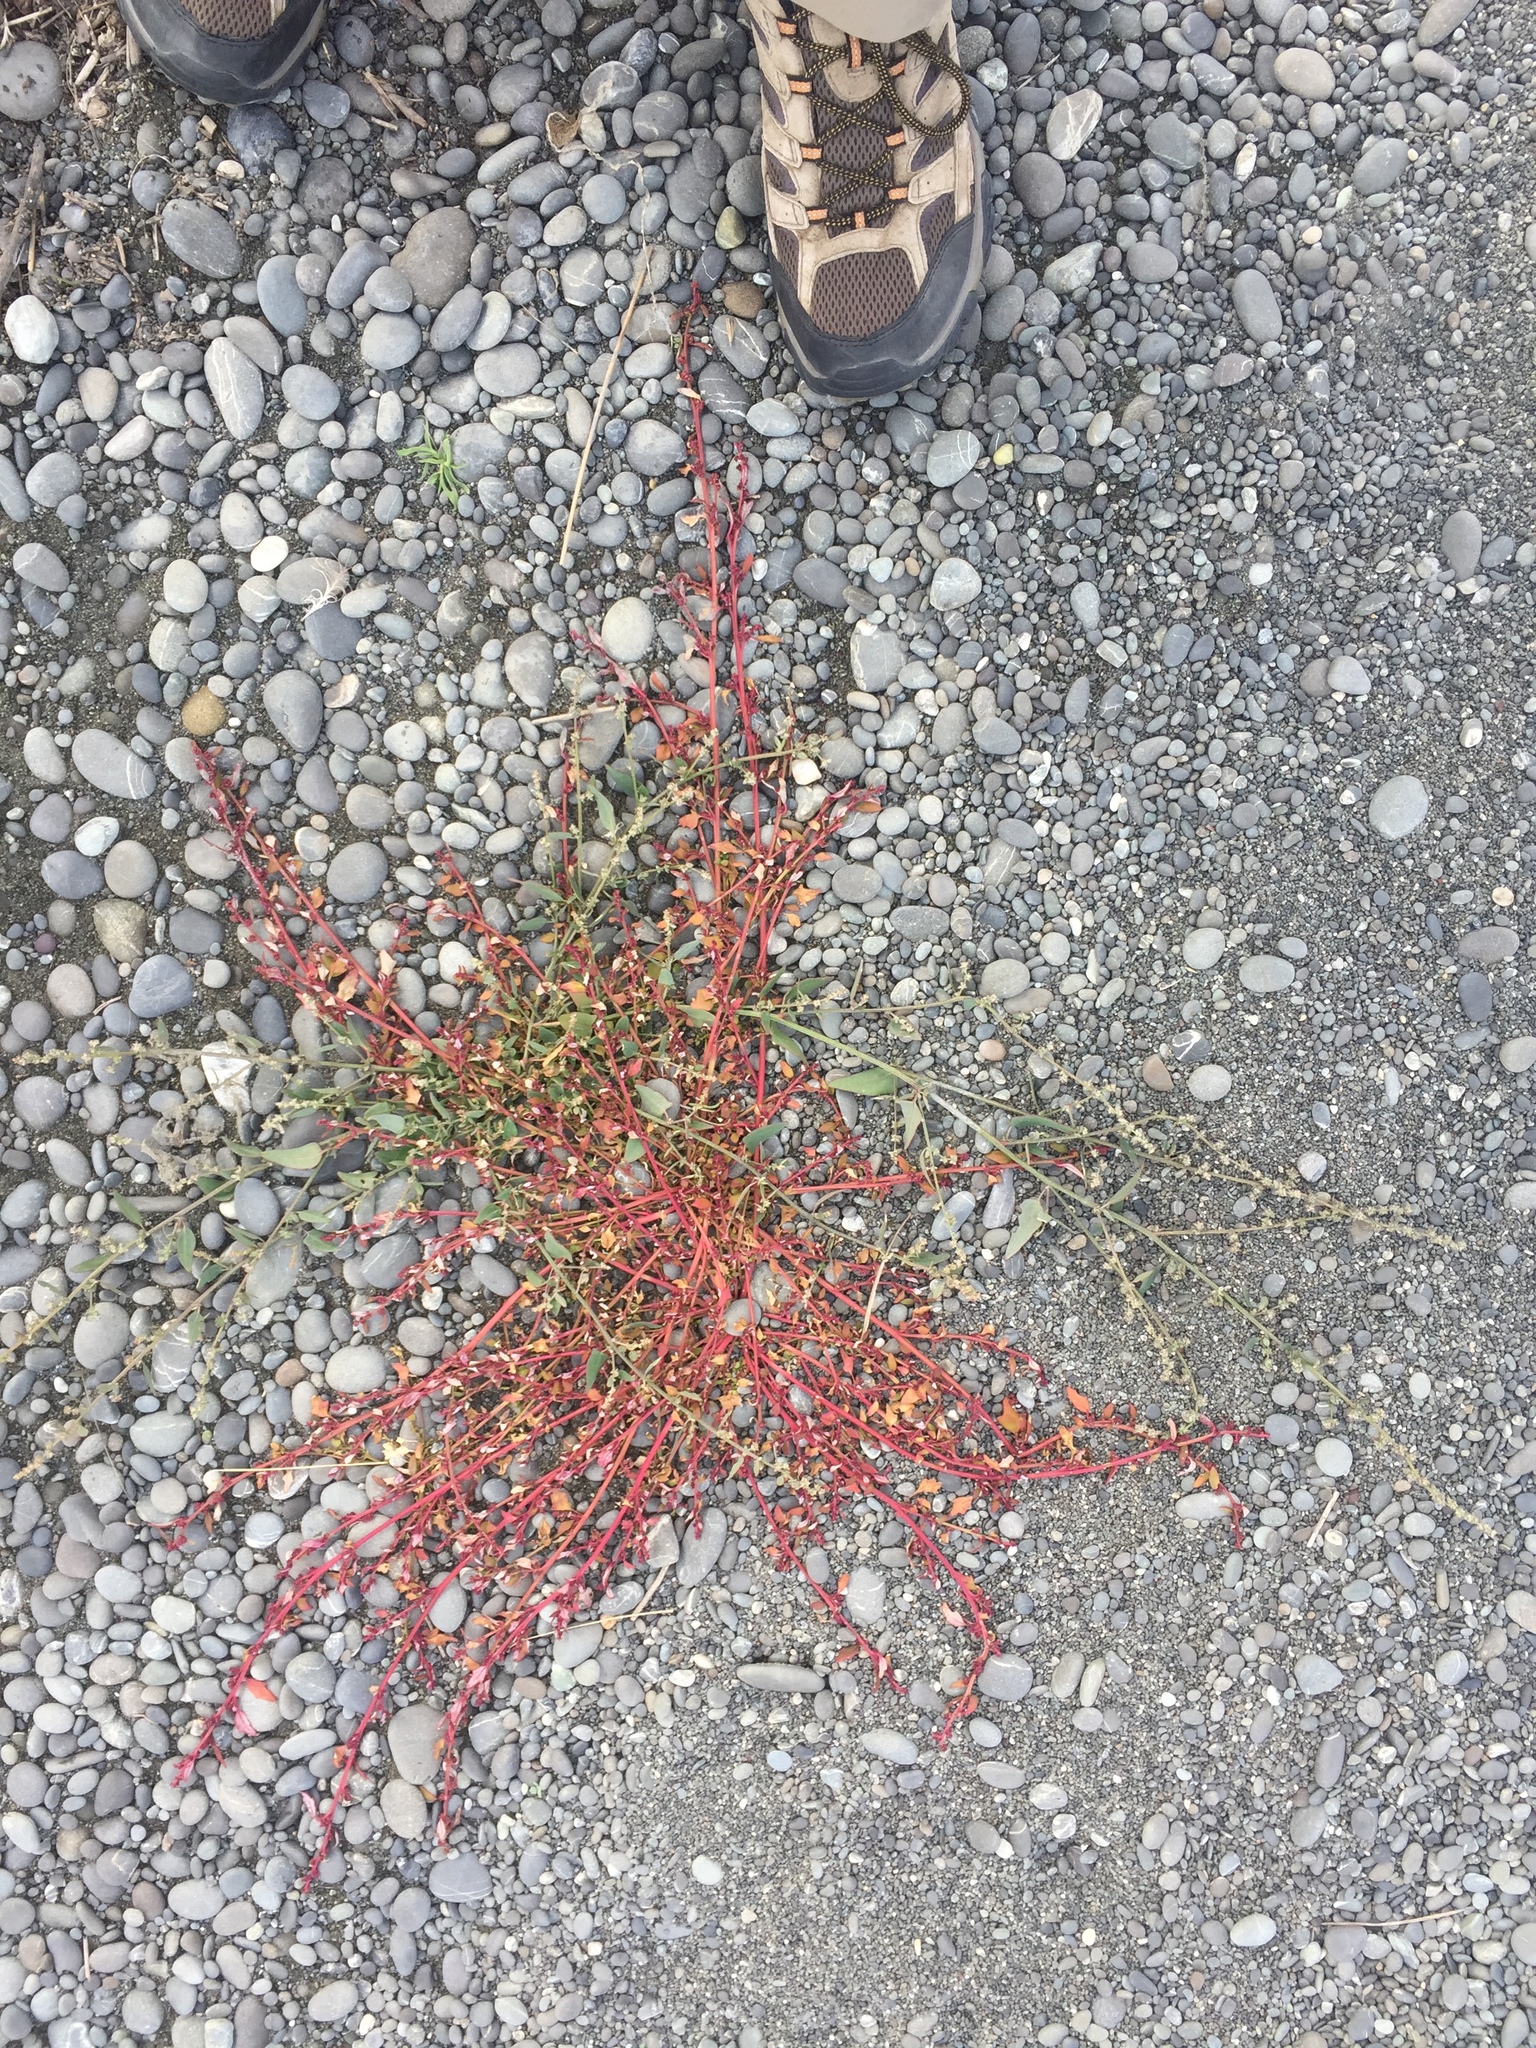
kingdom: Plantae
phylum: Tracheophyta
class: Magnoliopsida
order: Caryophyllales
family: Amaranthaceae
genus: Atriplex
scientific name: Atriplex prostrata
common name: Spear-leaved orache
